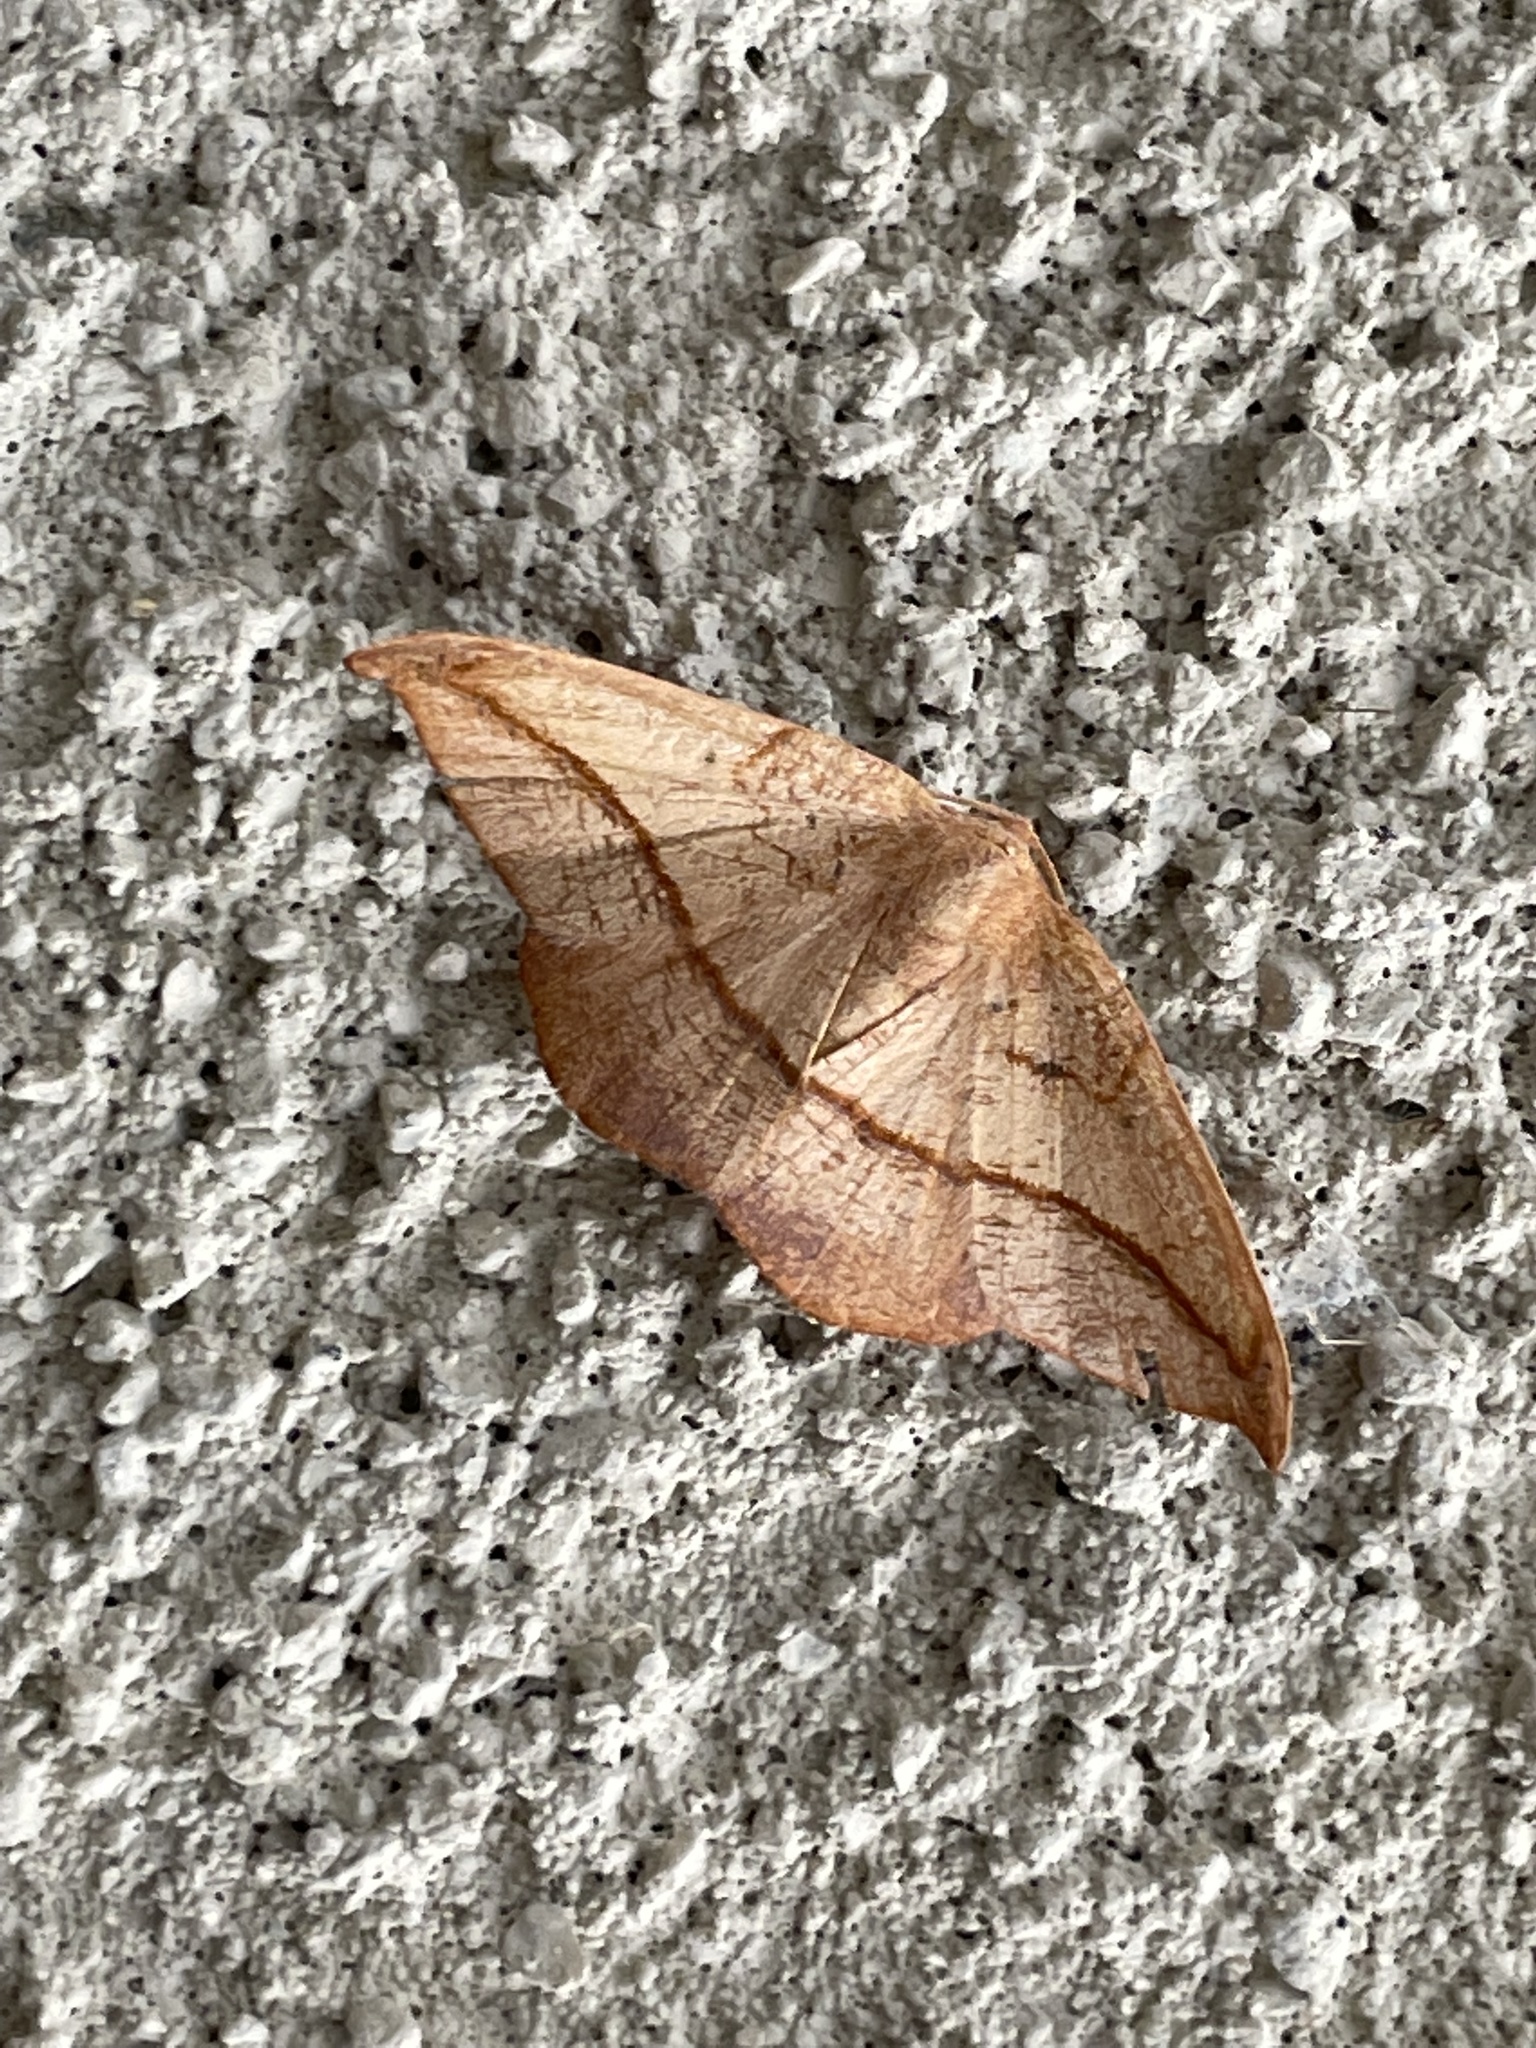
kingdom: Animalia
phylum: Arthropoda
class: Insecta
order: Lepidoptera
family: Geometridae
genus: Patalene
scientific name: Patalene olyzonaria
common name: Juniper geometer moth
